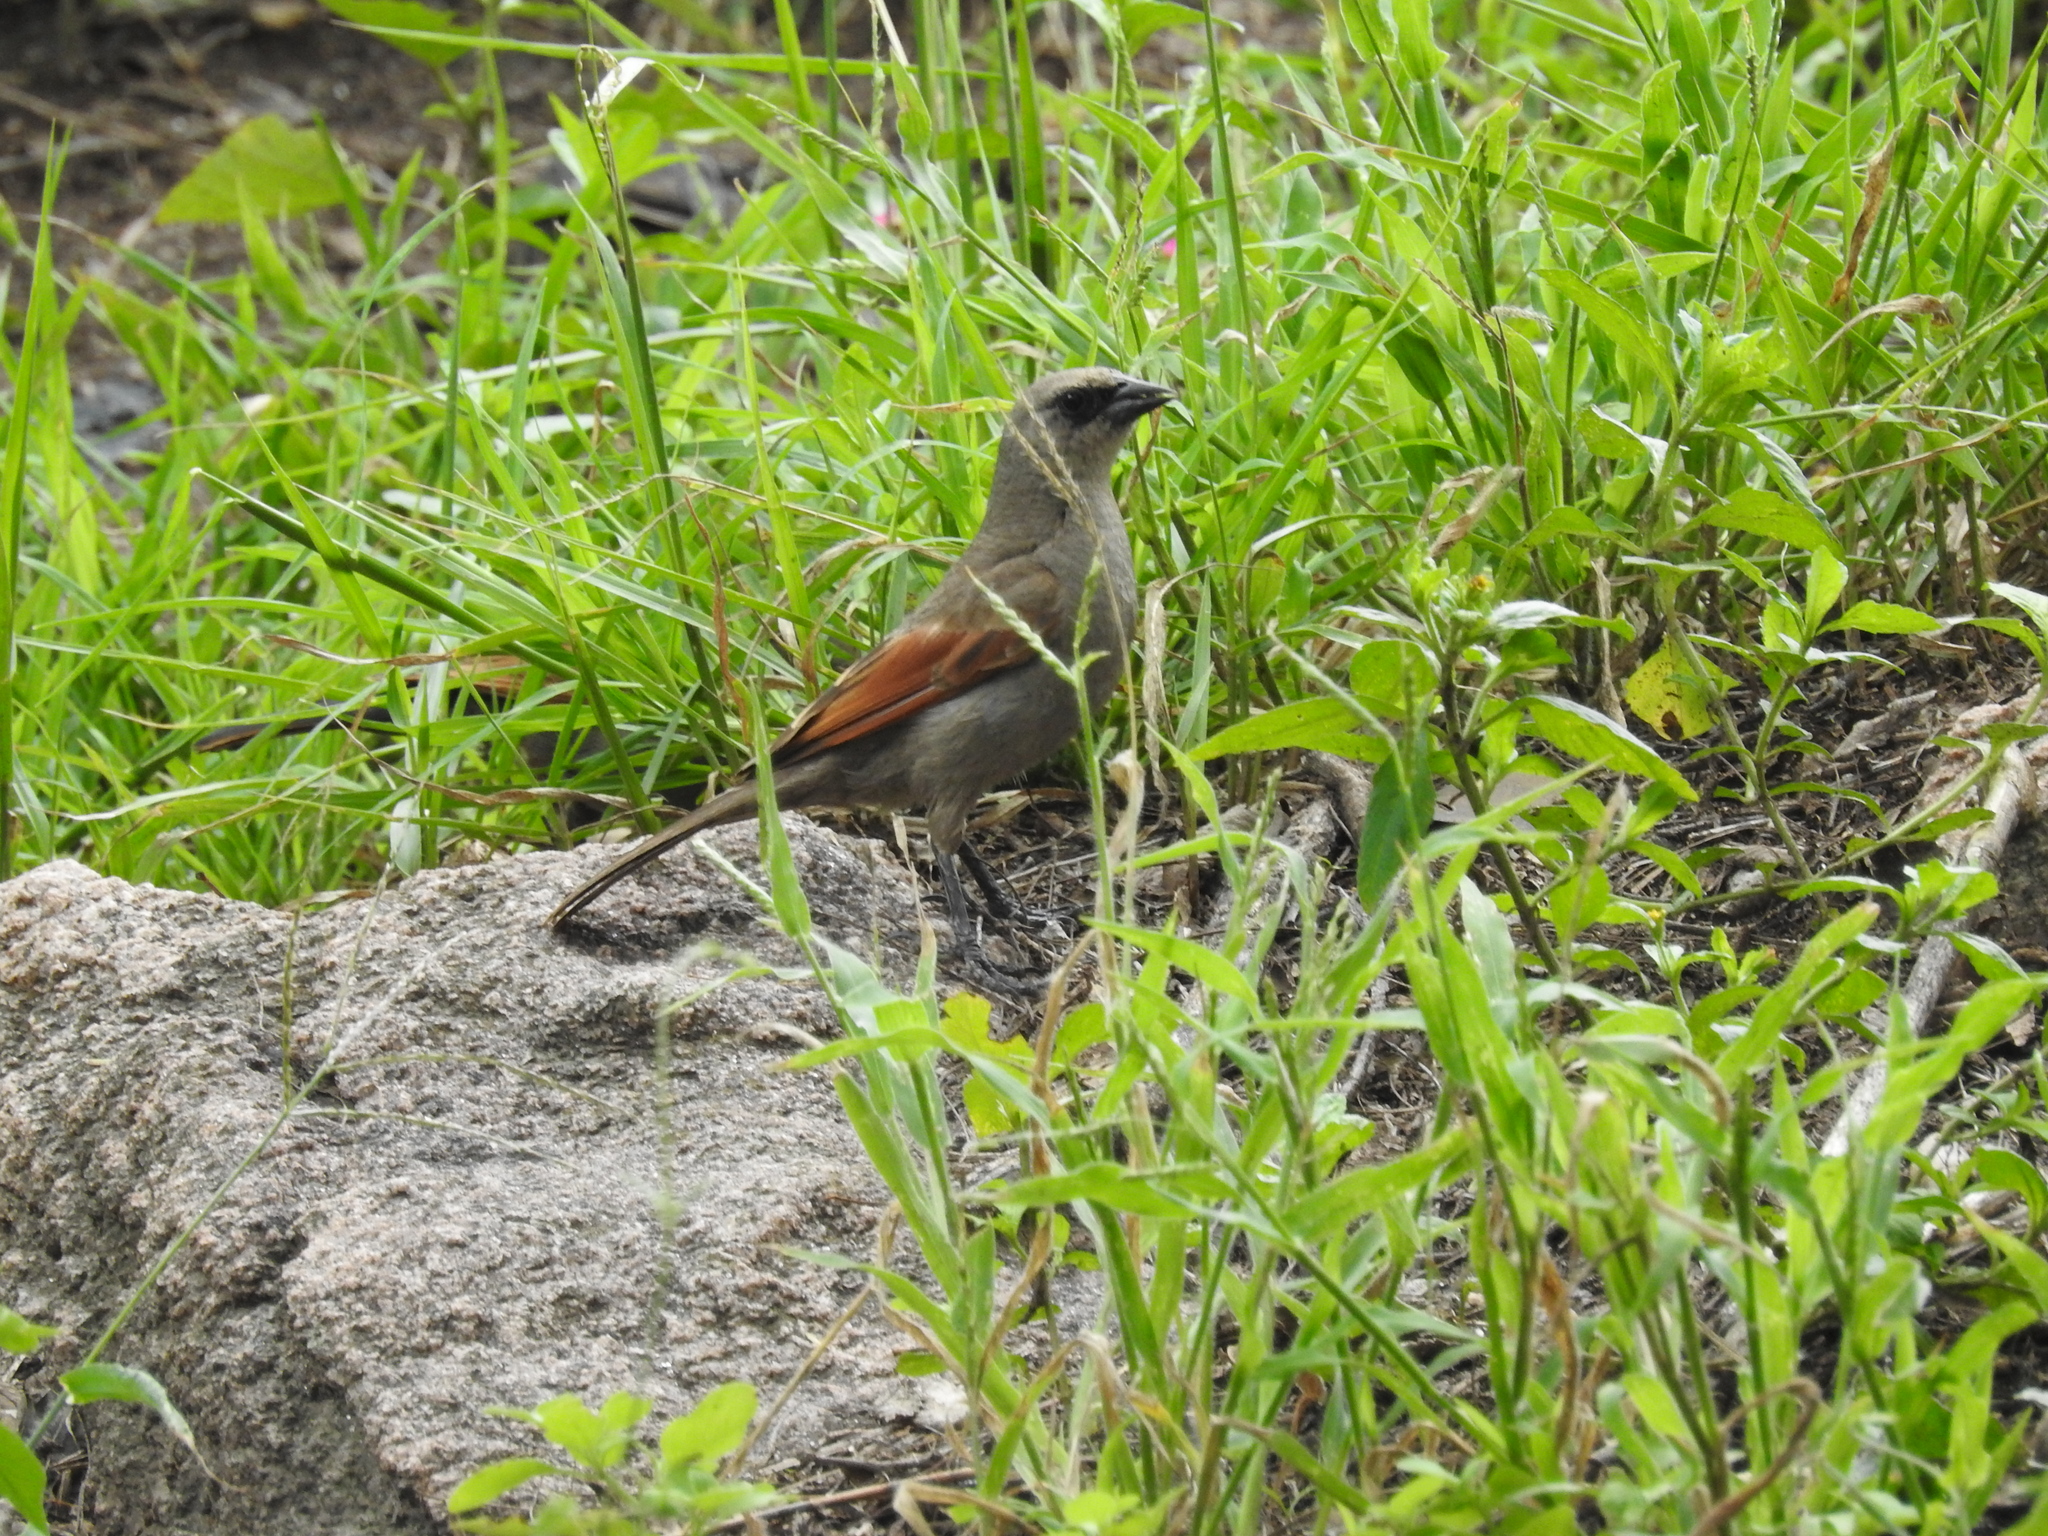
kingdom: Animalia
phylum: Chordata
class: Aves
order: Passeriformes
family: Icteridae
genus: Agelaioides
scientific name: Agelaioides badius
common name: Baywing
